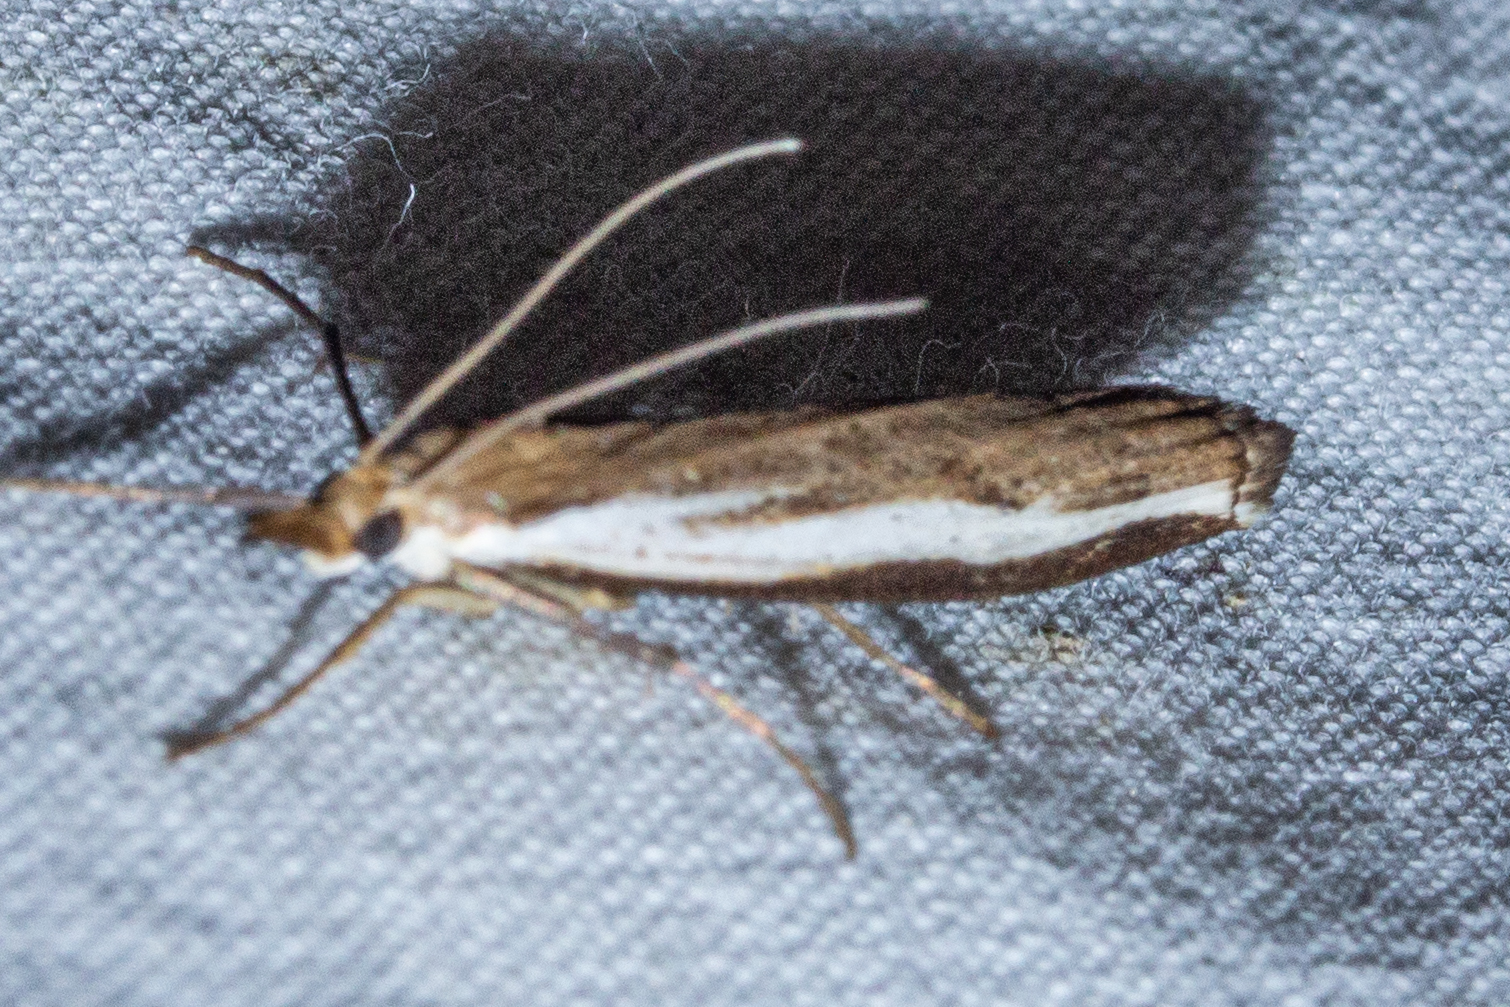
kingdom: Animalia
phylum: Arthropoda
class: Insecta
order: Lepidoptera
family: Crambidae
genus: Orocrambus
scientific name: Orocrambus flexuosellus
